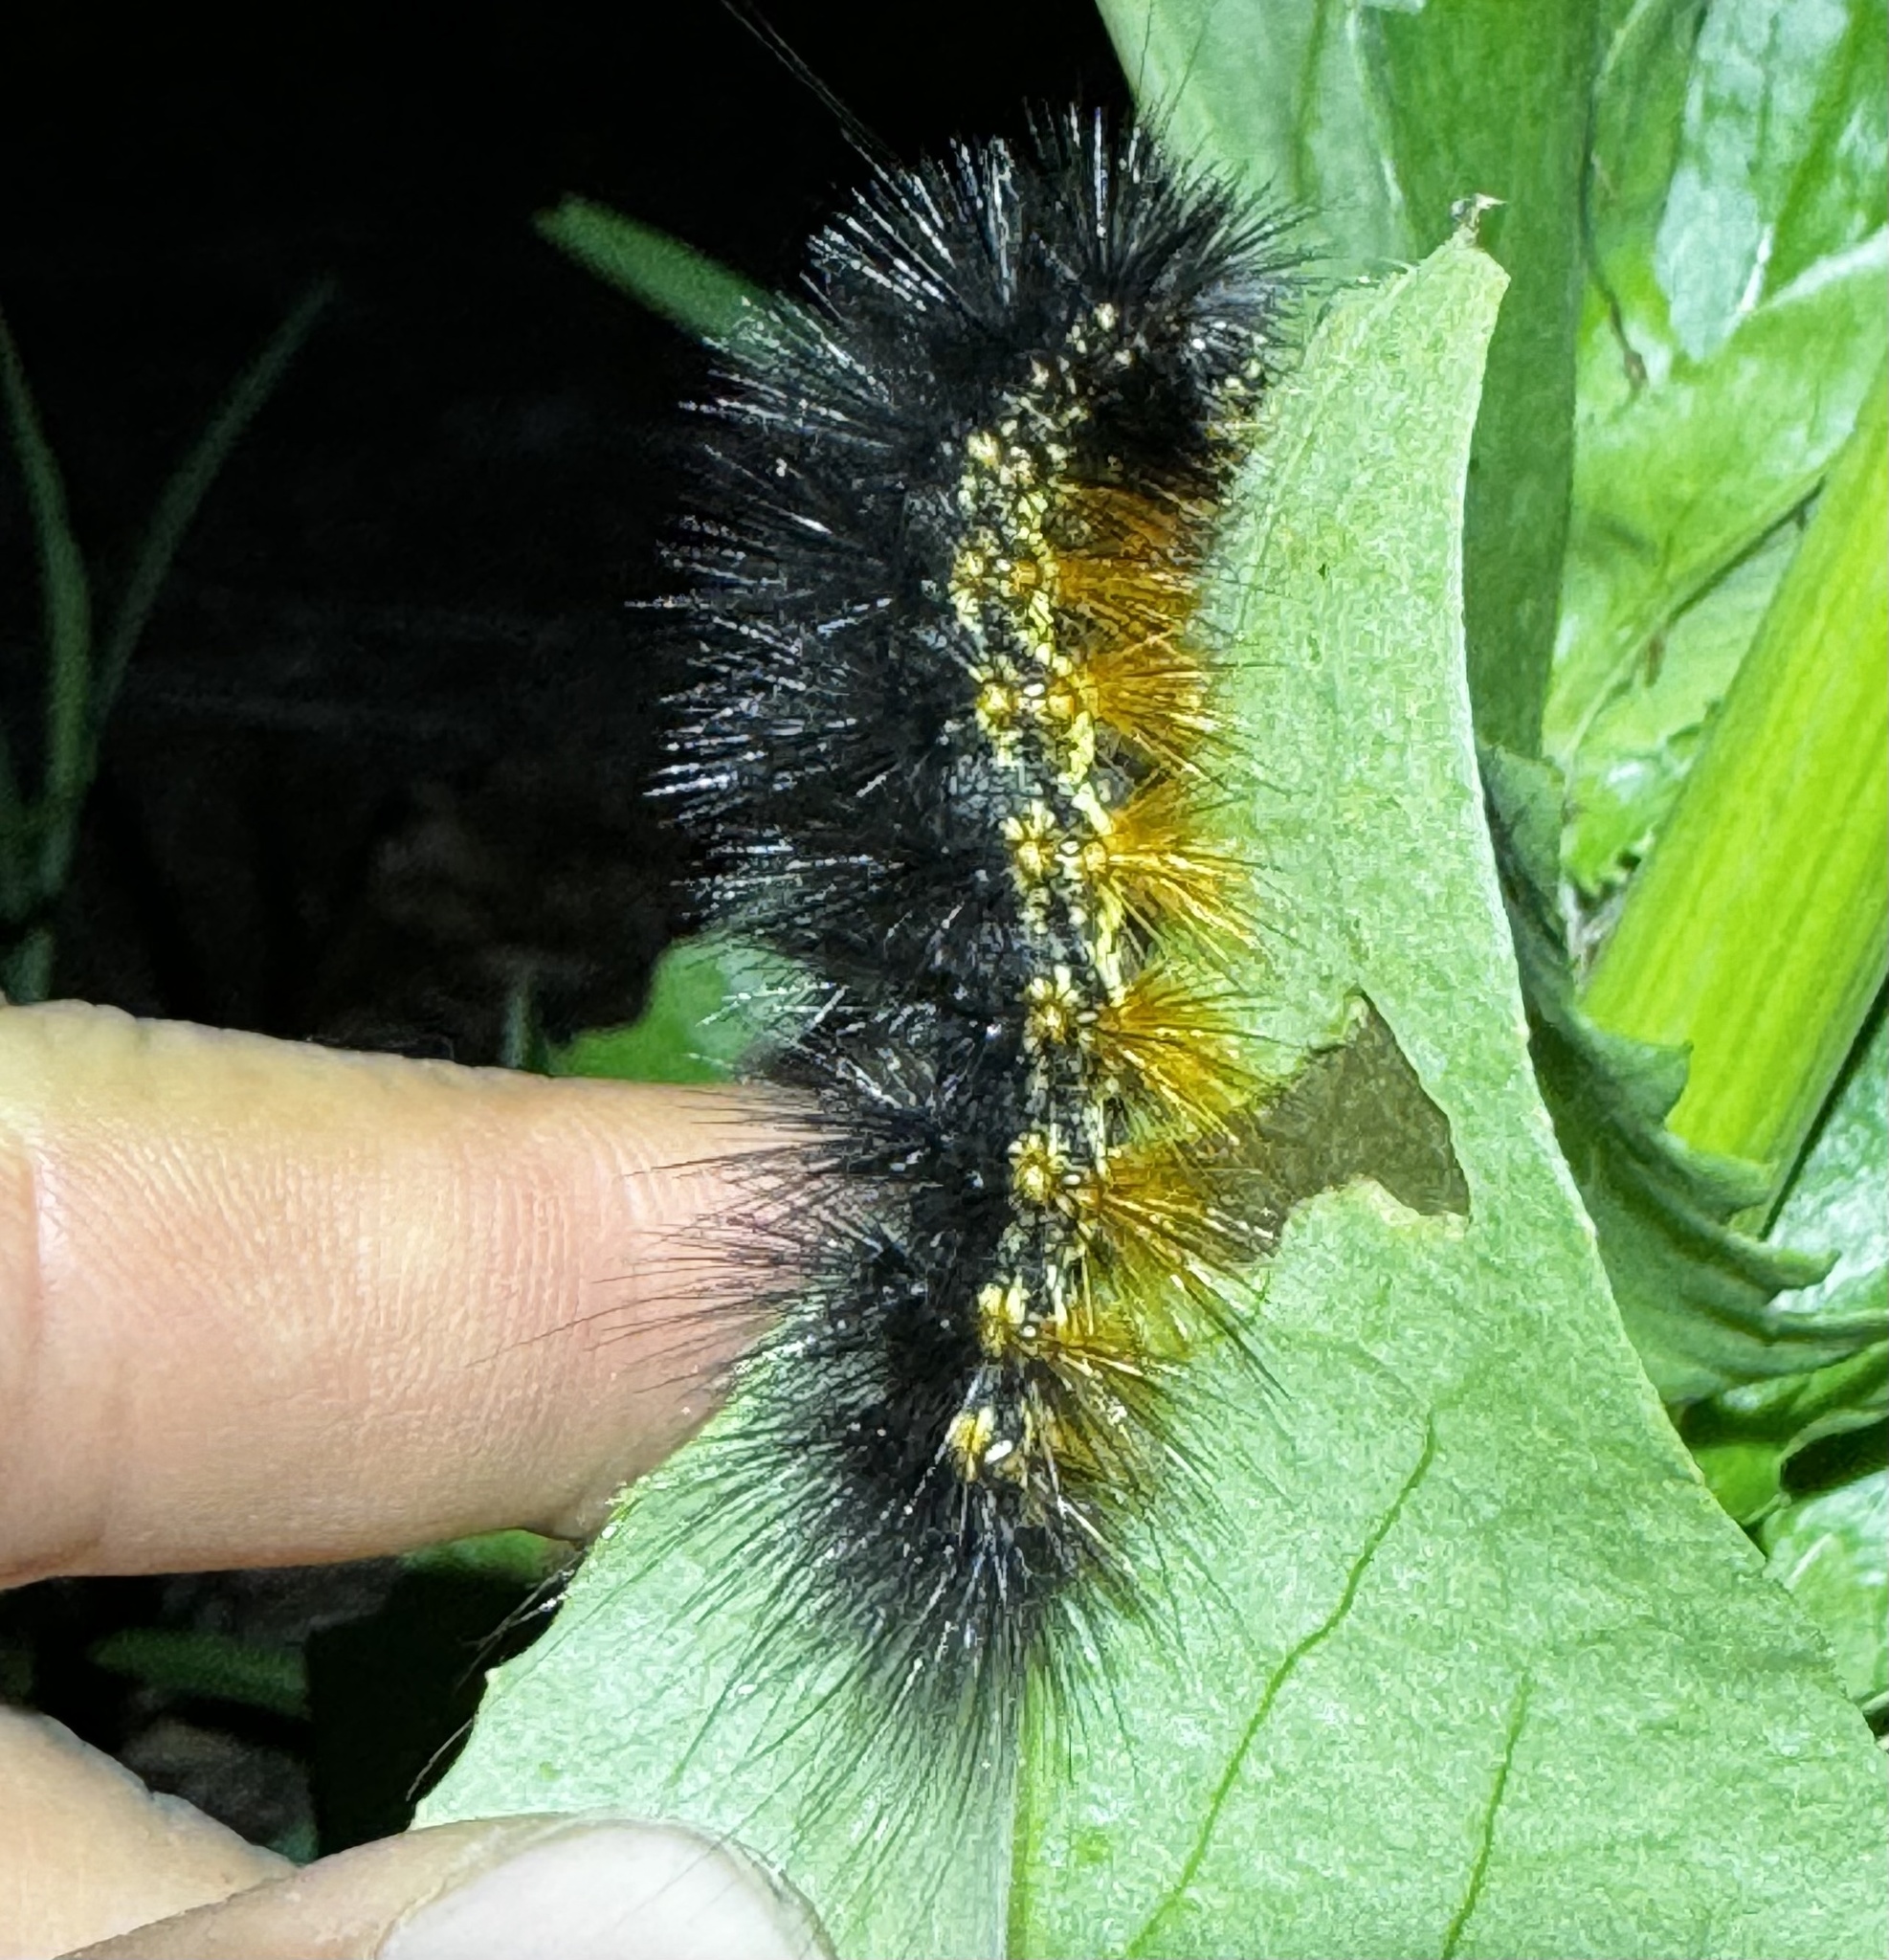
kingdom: Animalia
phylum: Arthropoda
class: Insecta
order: Lepidoptera
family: Erebidae
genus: Estigmene
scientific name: Estigmene acrea
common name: Salt marsh moth
